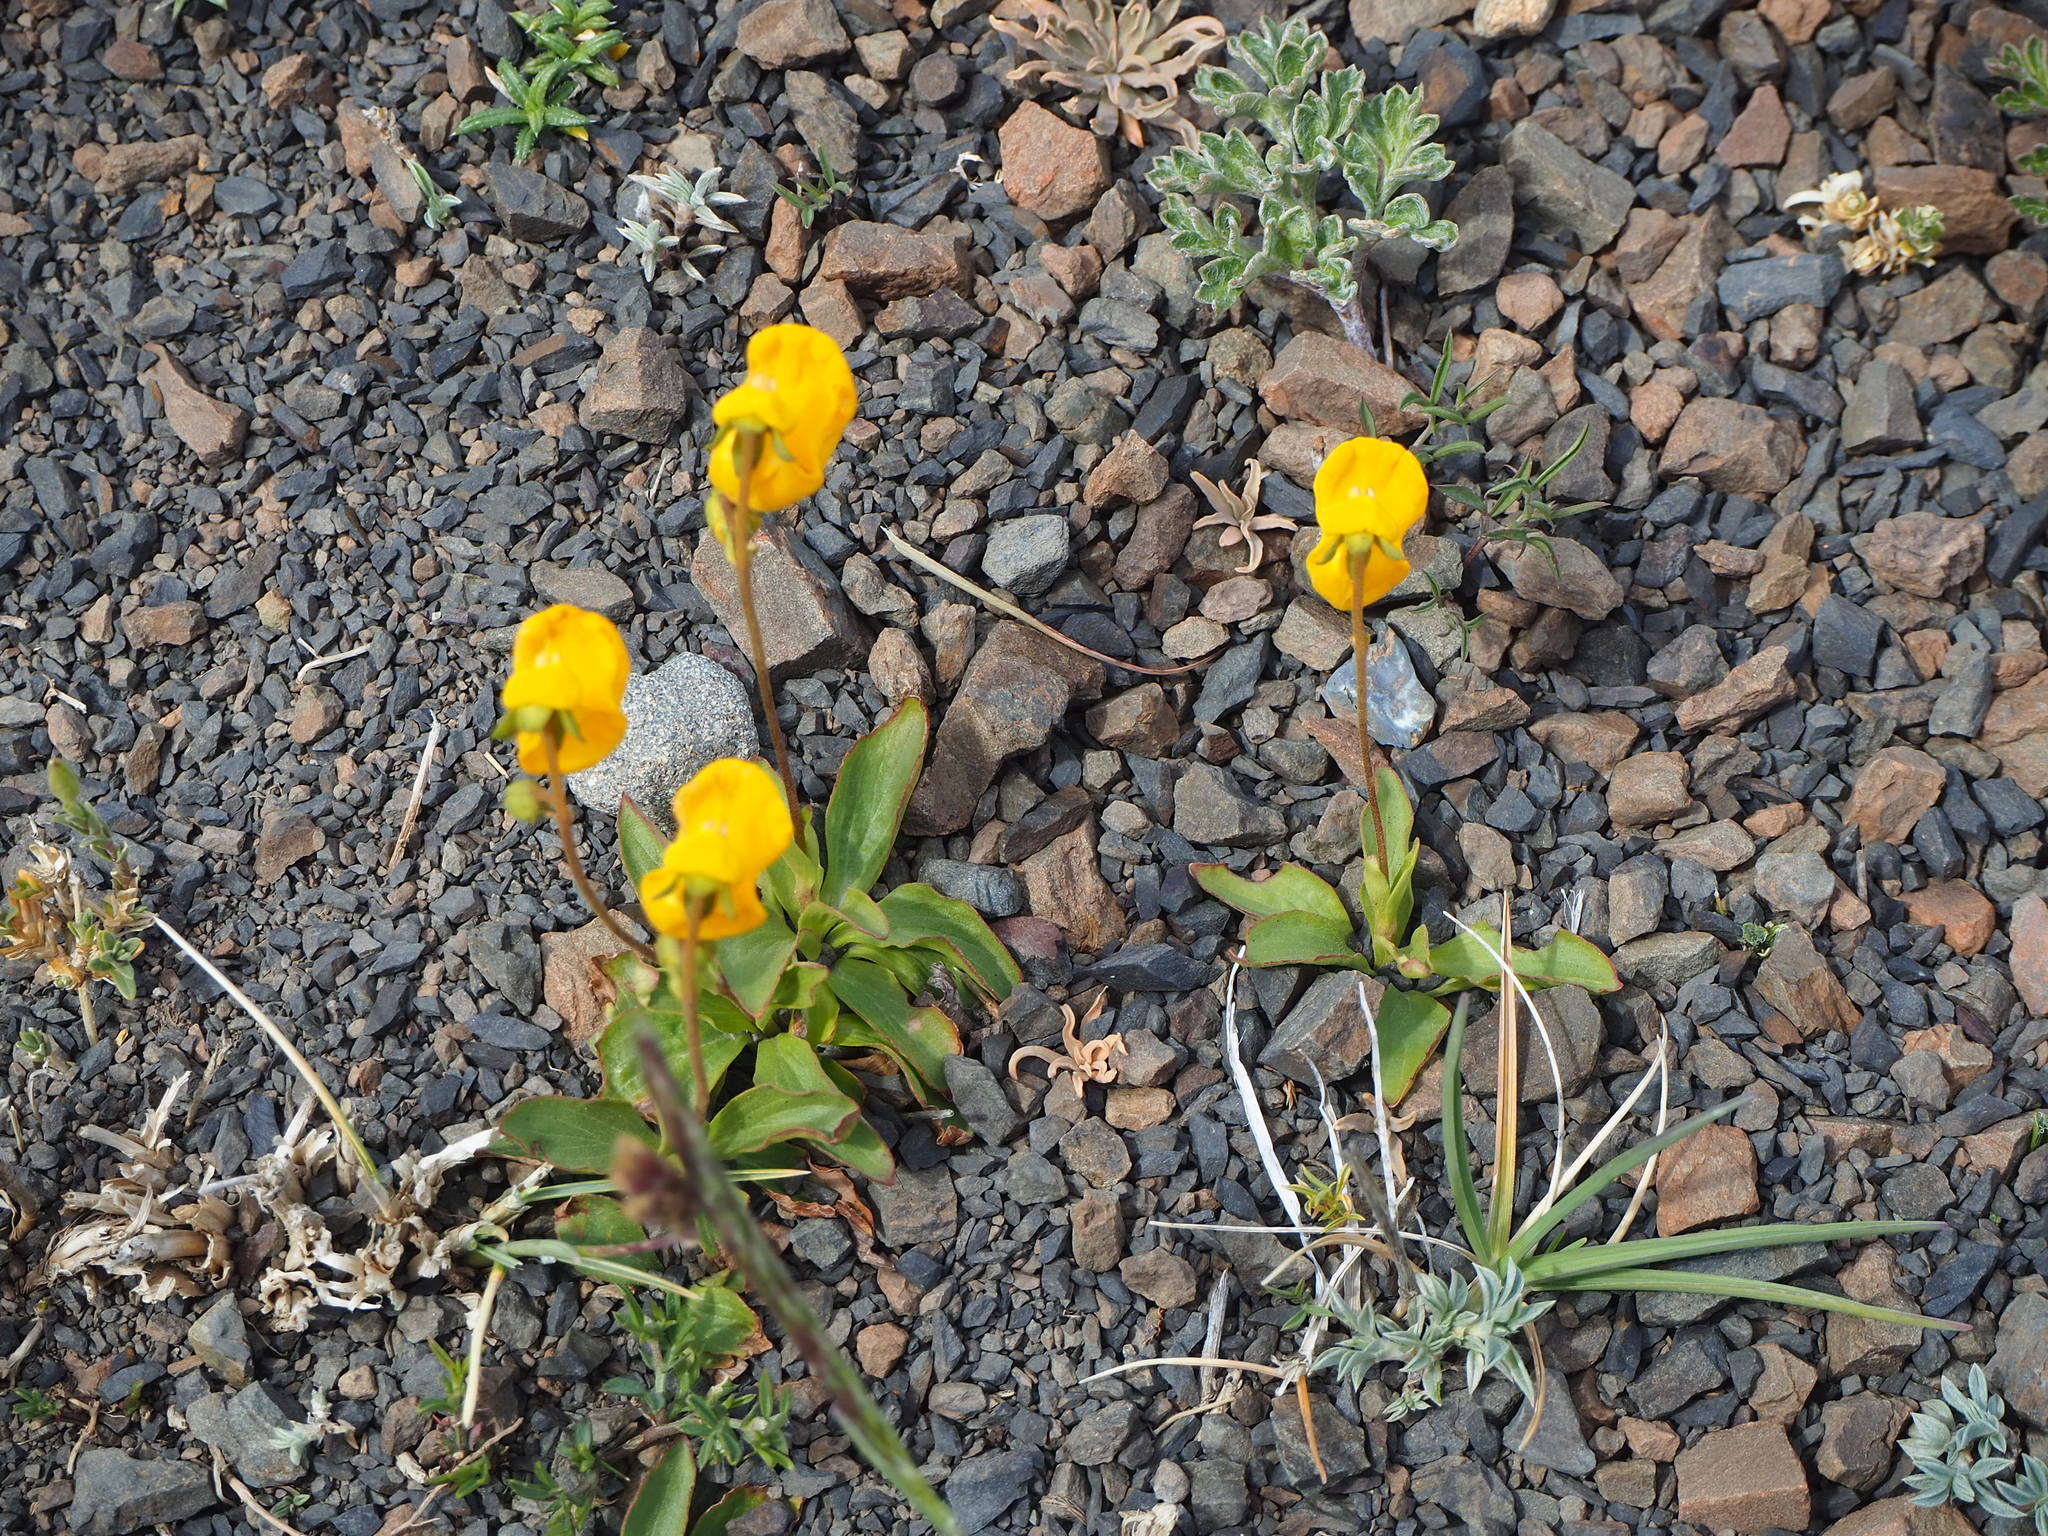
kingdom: Plantae
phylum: Tracheophyta
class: Magnoliopsida
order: Lamiales
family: Calceolariaceae
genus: Calceolaria
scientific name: Calceolaria polyrhiza
